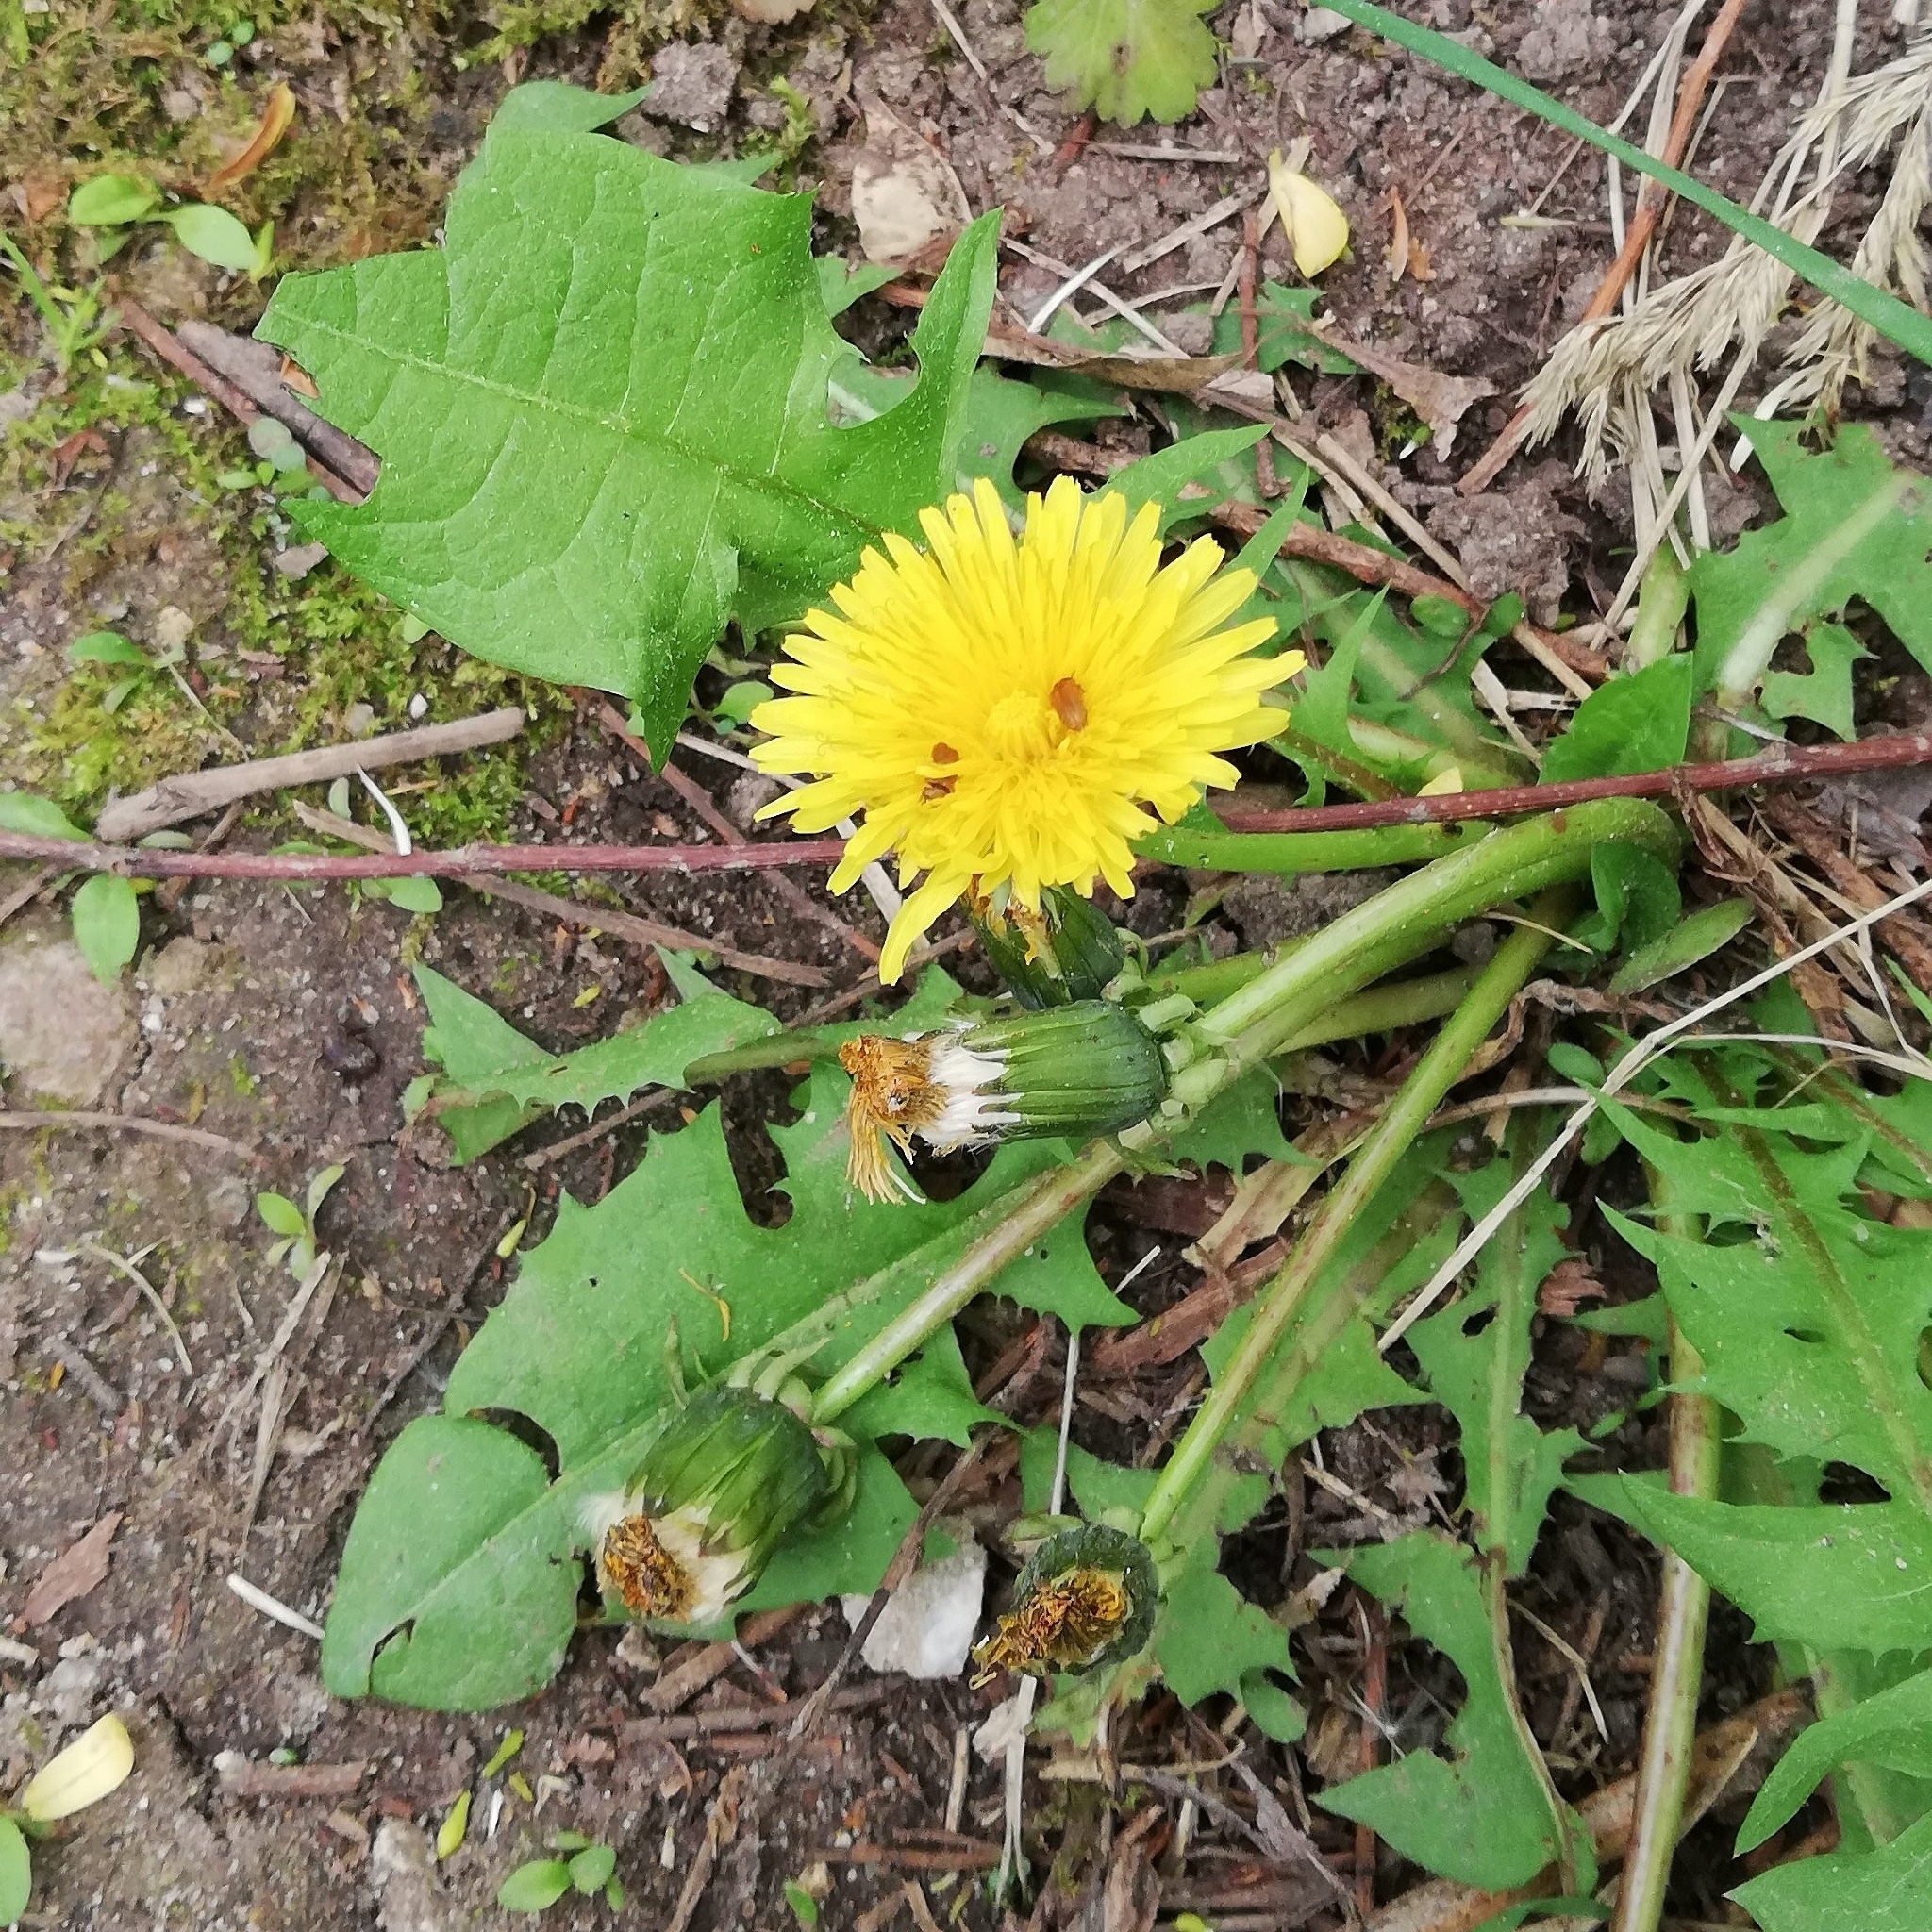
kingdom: Plantae
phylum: Tracheophyta
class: Magnoliopsida
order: Asterales
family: Asteraceae
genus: Taraxacum
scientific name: Taraxacum officinale
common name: Common dandelion
